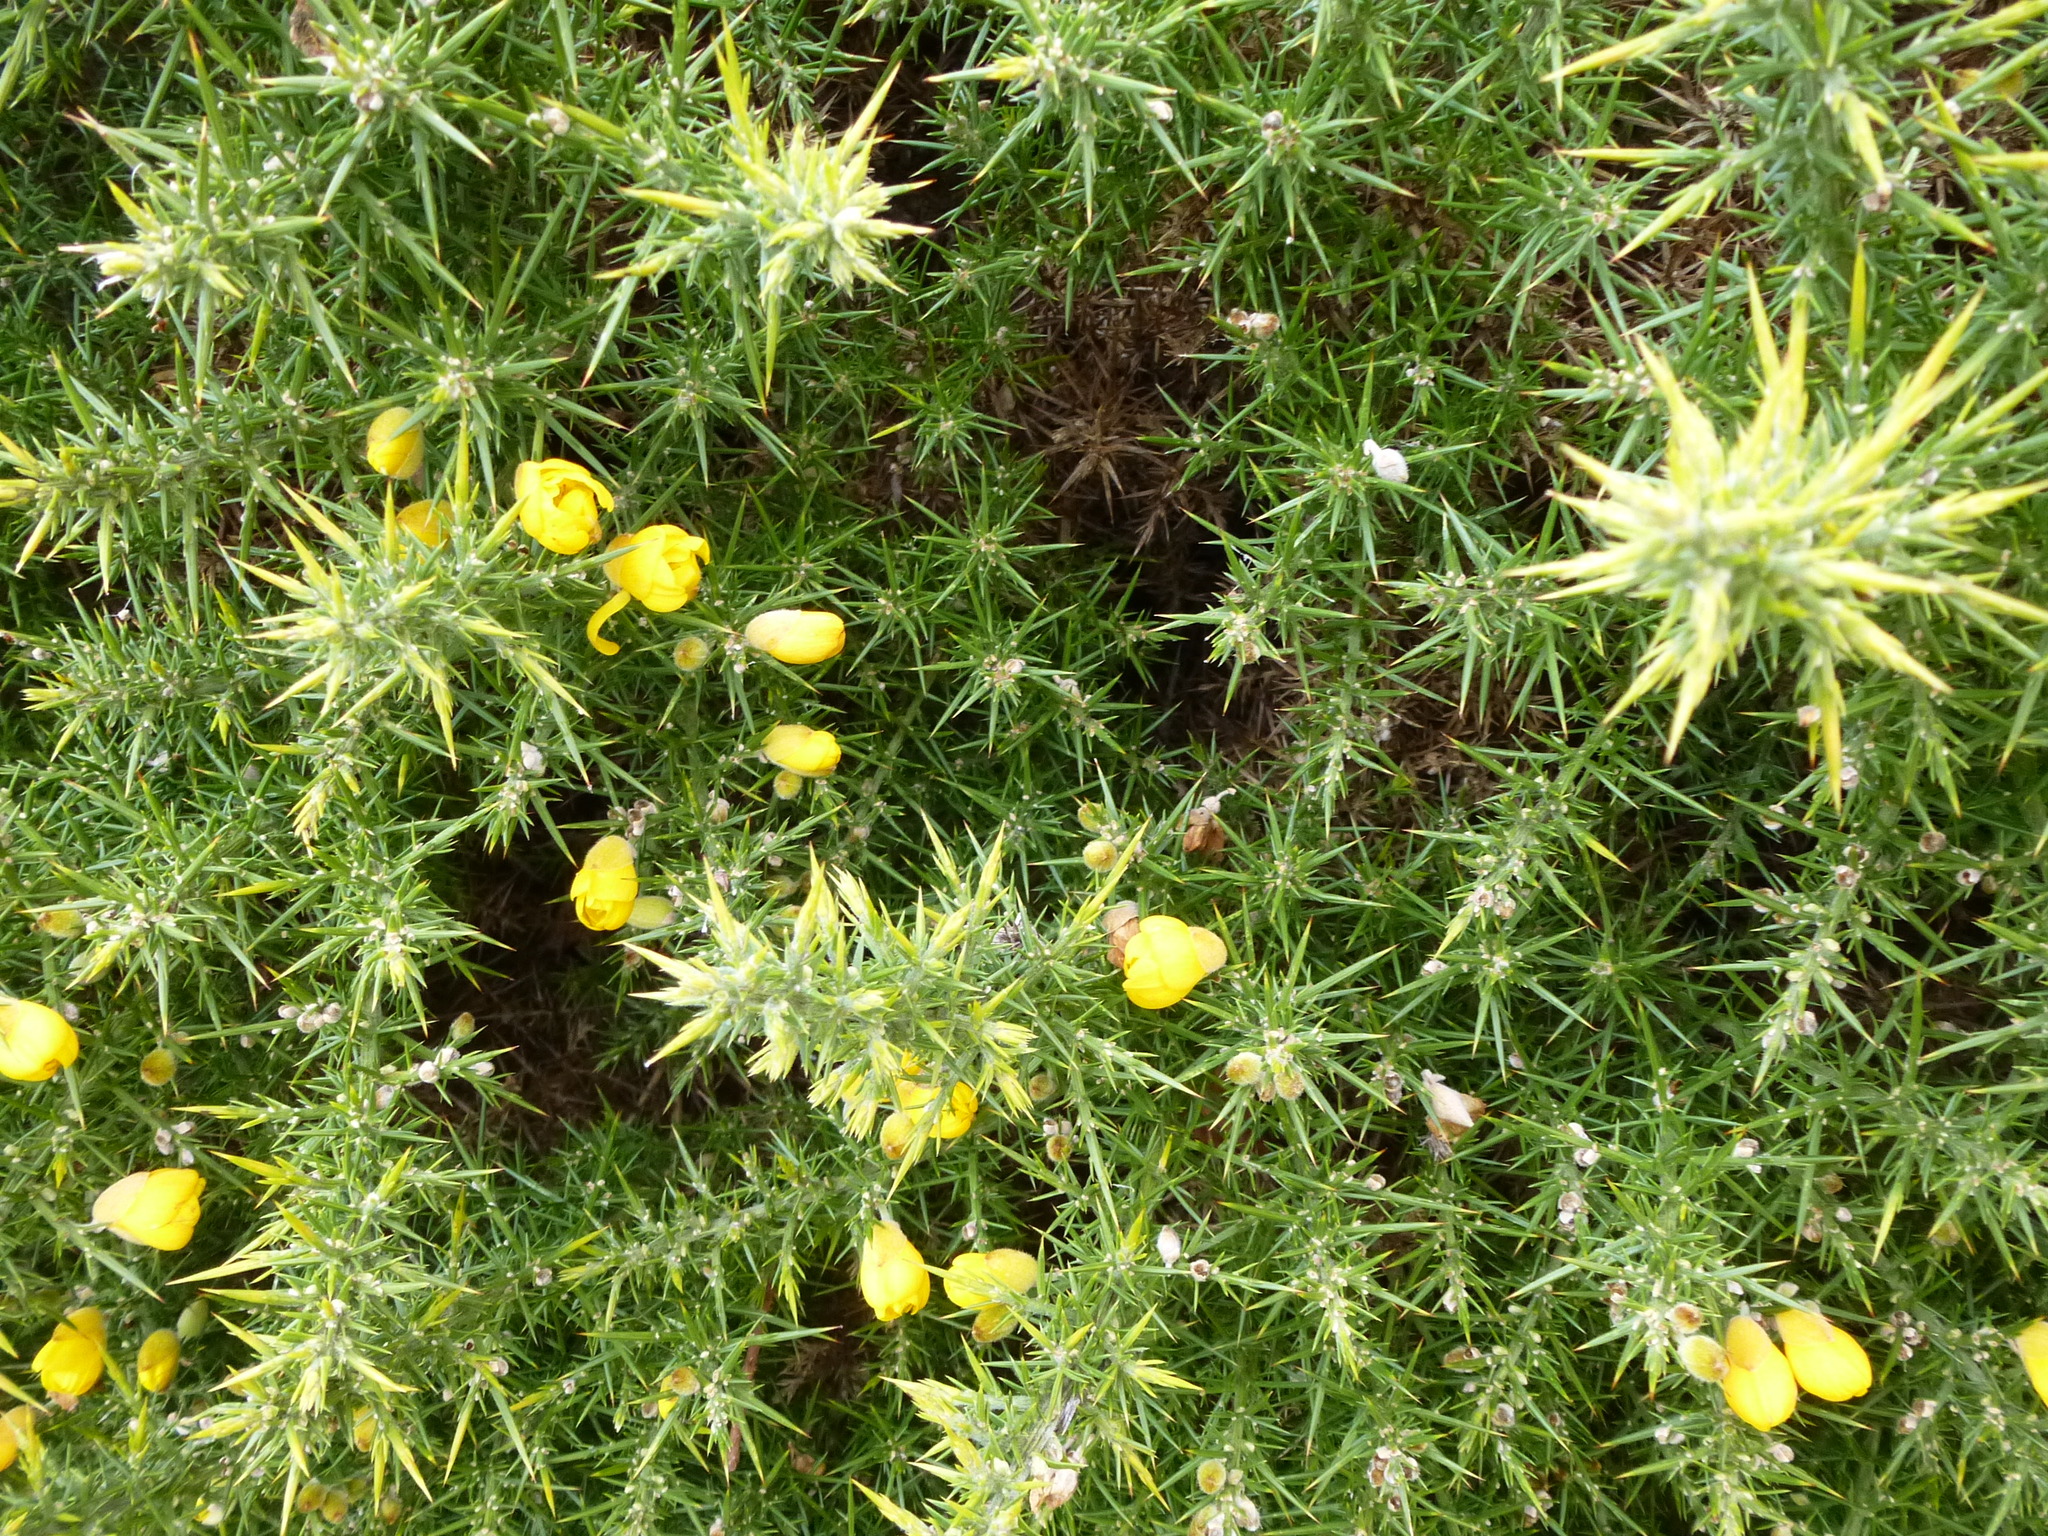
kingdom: Plantae
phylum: Tracheophyta
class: Magnoliopsida
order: Fabales
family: Fabaceae
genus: Ulex
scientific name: Ulex europaeus
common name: Common gorse
